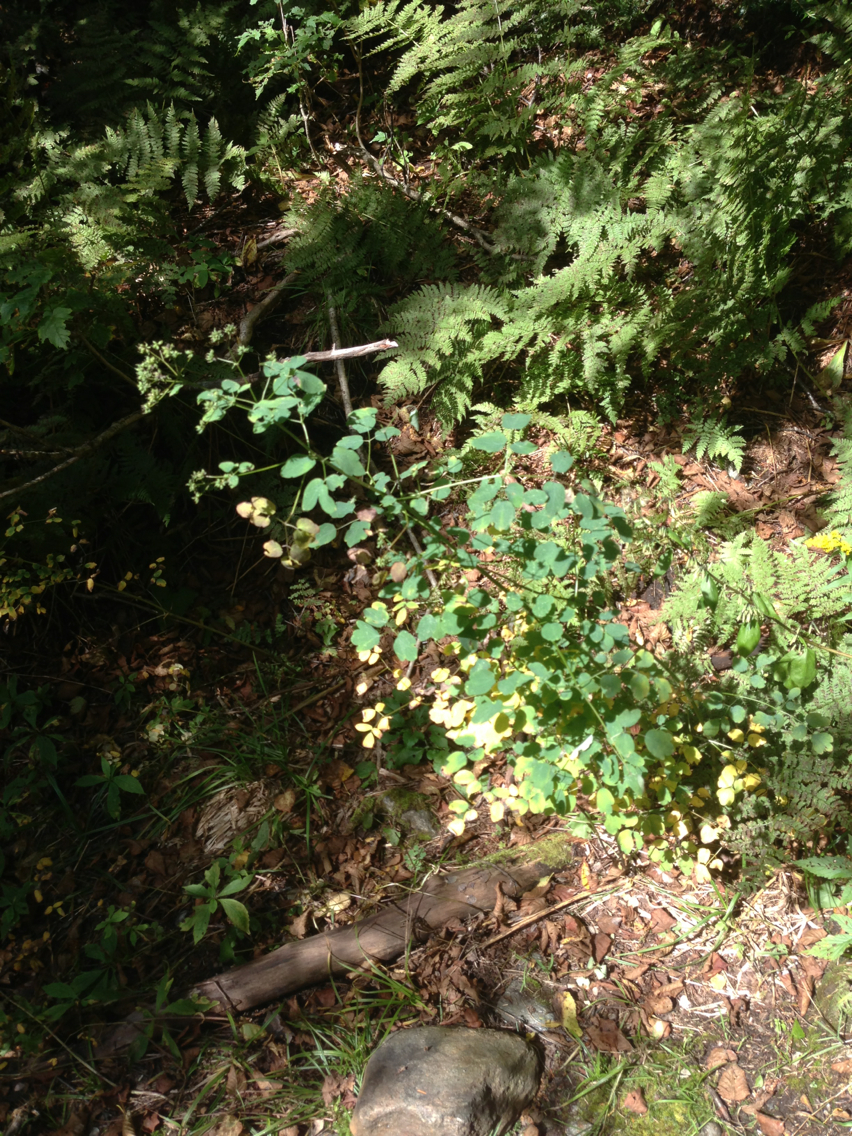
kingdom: Plantae
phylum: Tracheophyta
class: Magnoliopsida
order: Ranunculales
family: Ranunculaceae
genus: Thalictrum
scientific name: Thalictrum pubescens
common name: King-of-the-meadow
